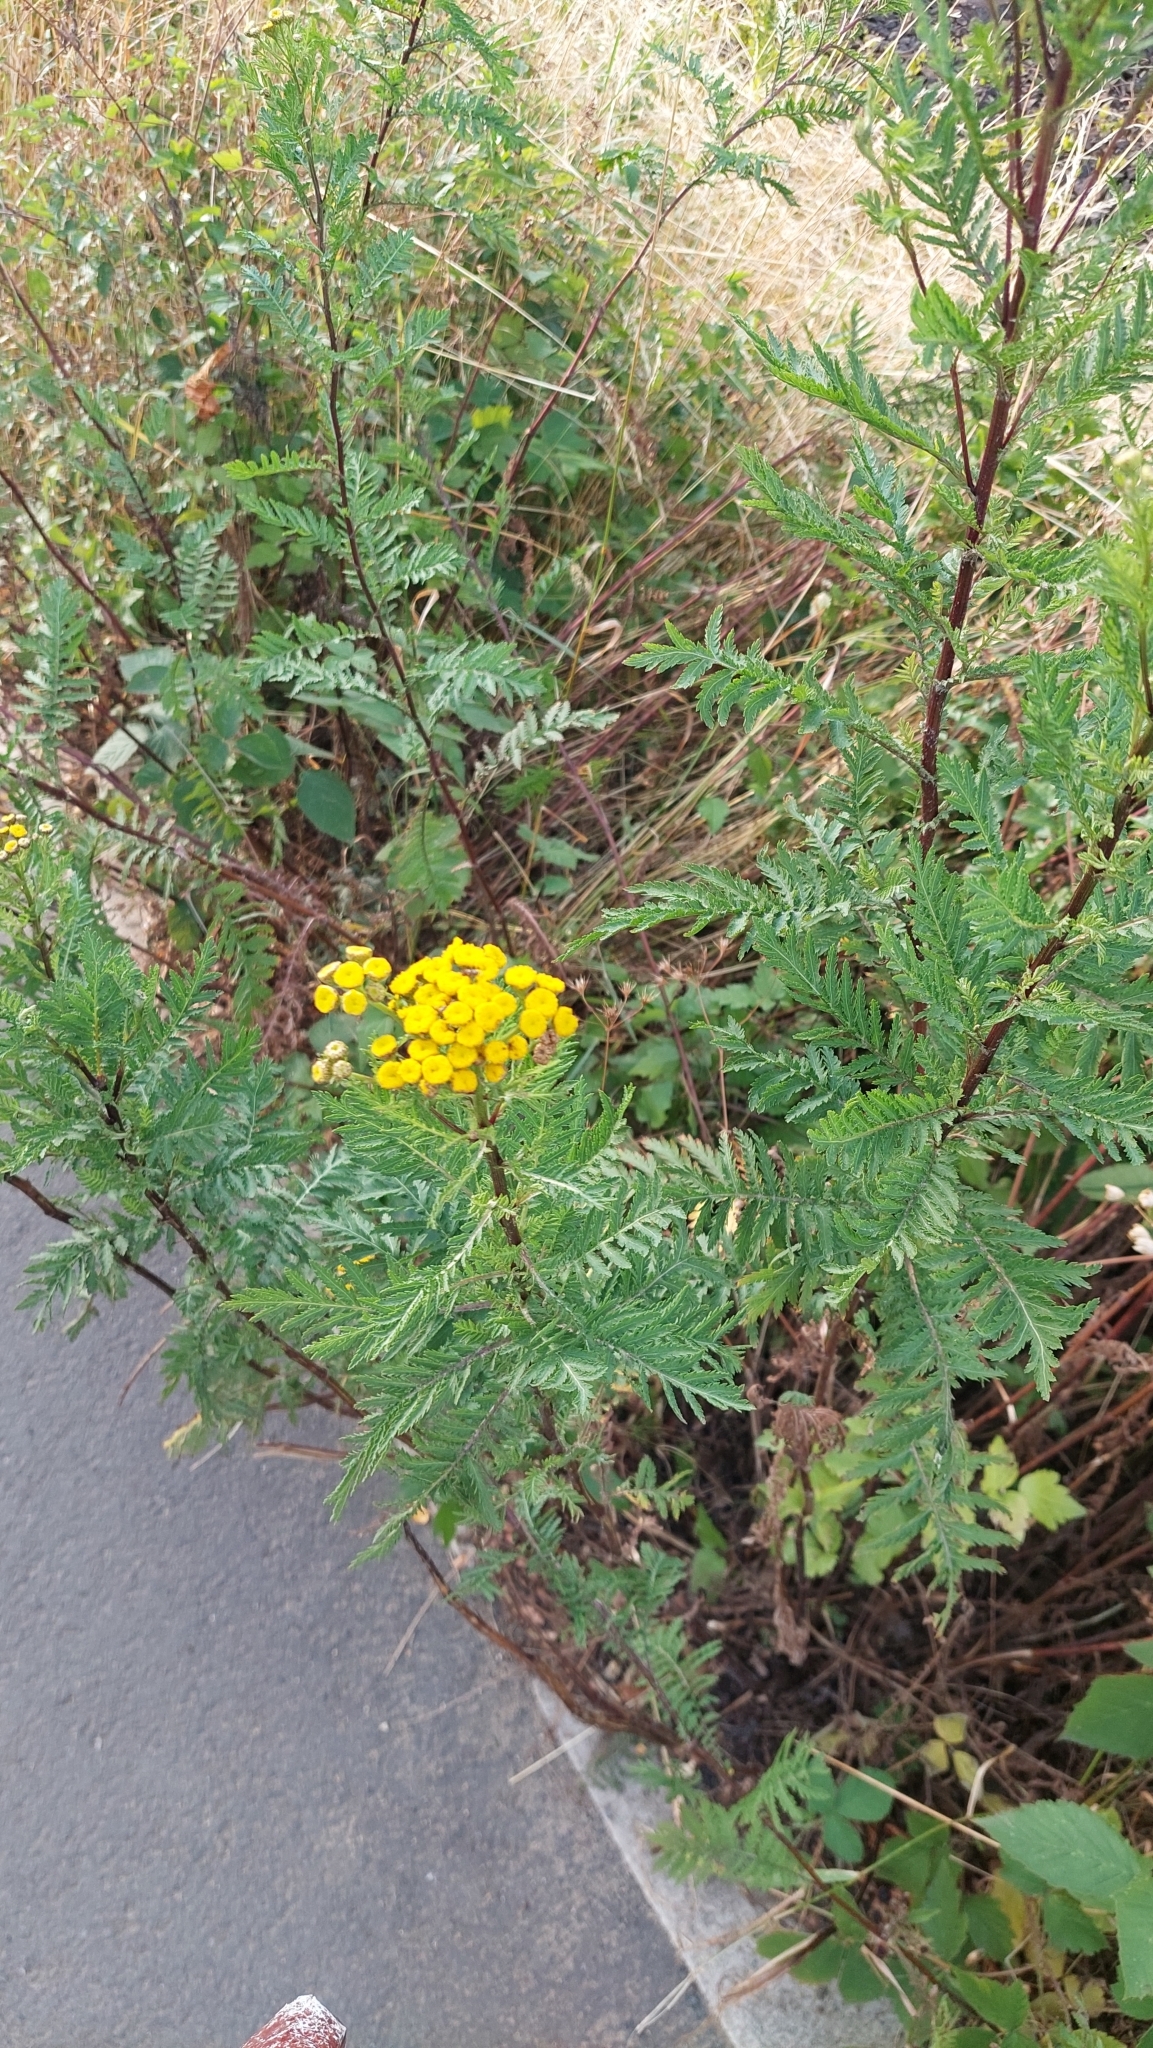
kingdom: Plantae
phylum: Tracheophyta
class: Magnoliopsida
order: Asterales
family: Asteraceae
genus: Tanacetum
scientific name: Tanacetum vulgare
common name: Common tansy
